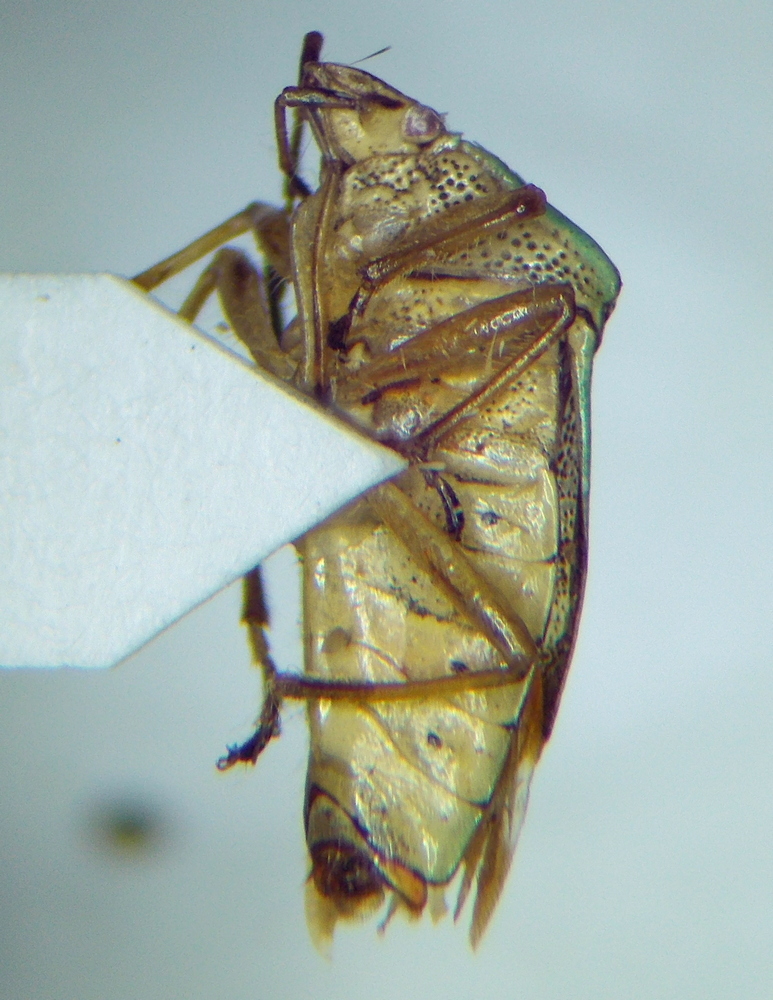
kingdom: Animalia
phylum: Arthropoda
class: Insecta
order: Hemiptera
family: Acanthosomatidae
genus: Elasmucha
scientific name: Elasmucha grisea
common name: Parent bug
